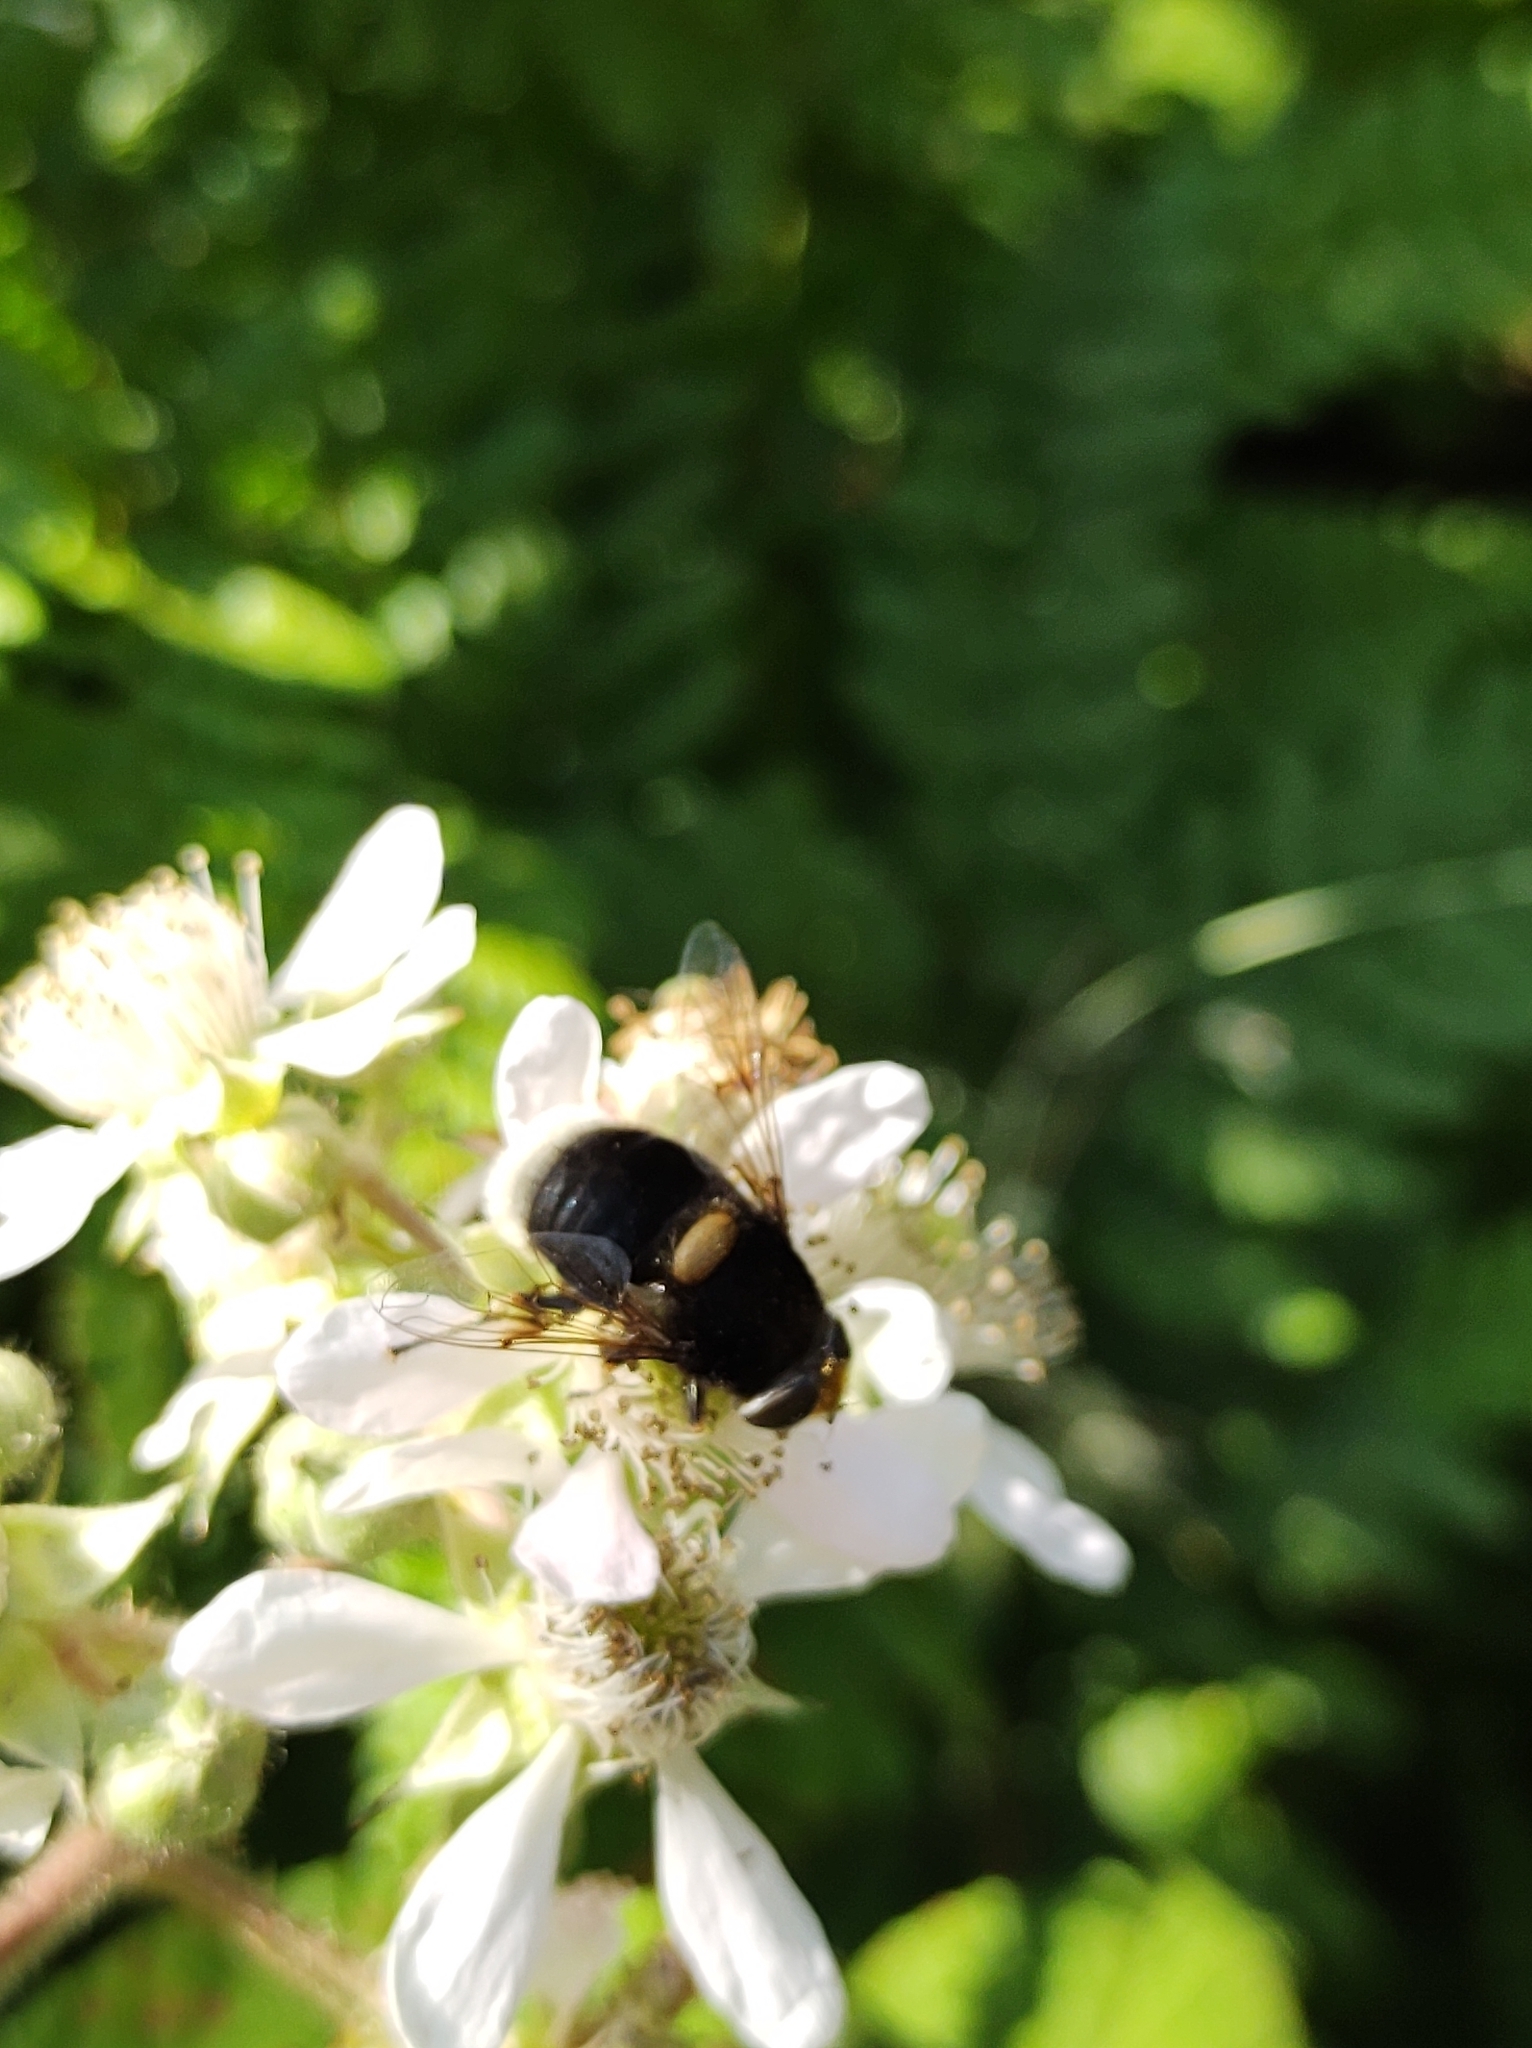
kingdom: Animalia
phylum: Arthropoda
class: Insecta
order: Diptera
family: Syrphidae
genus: Eristalis
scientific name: Eristalis intricaria
